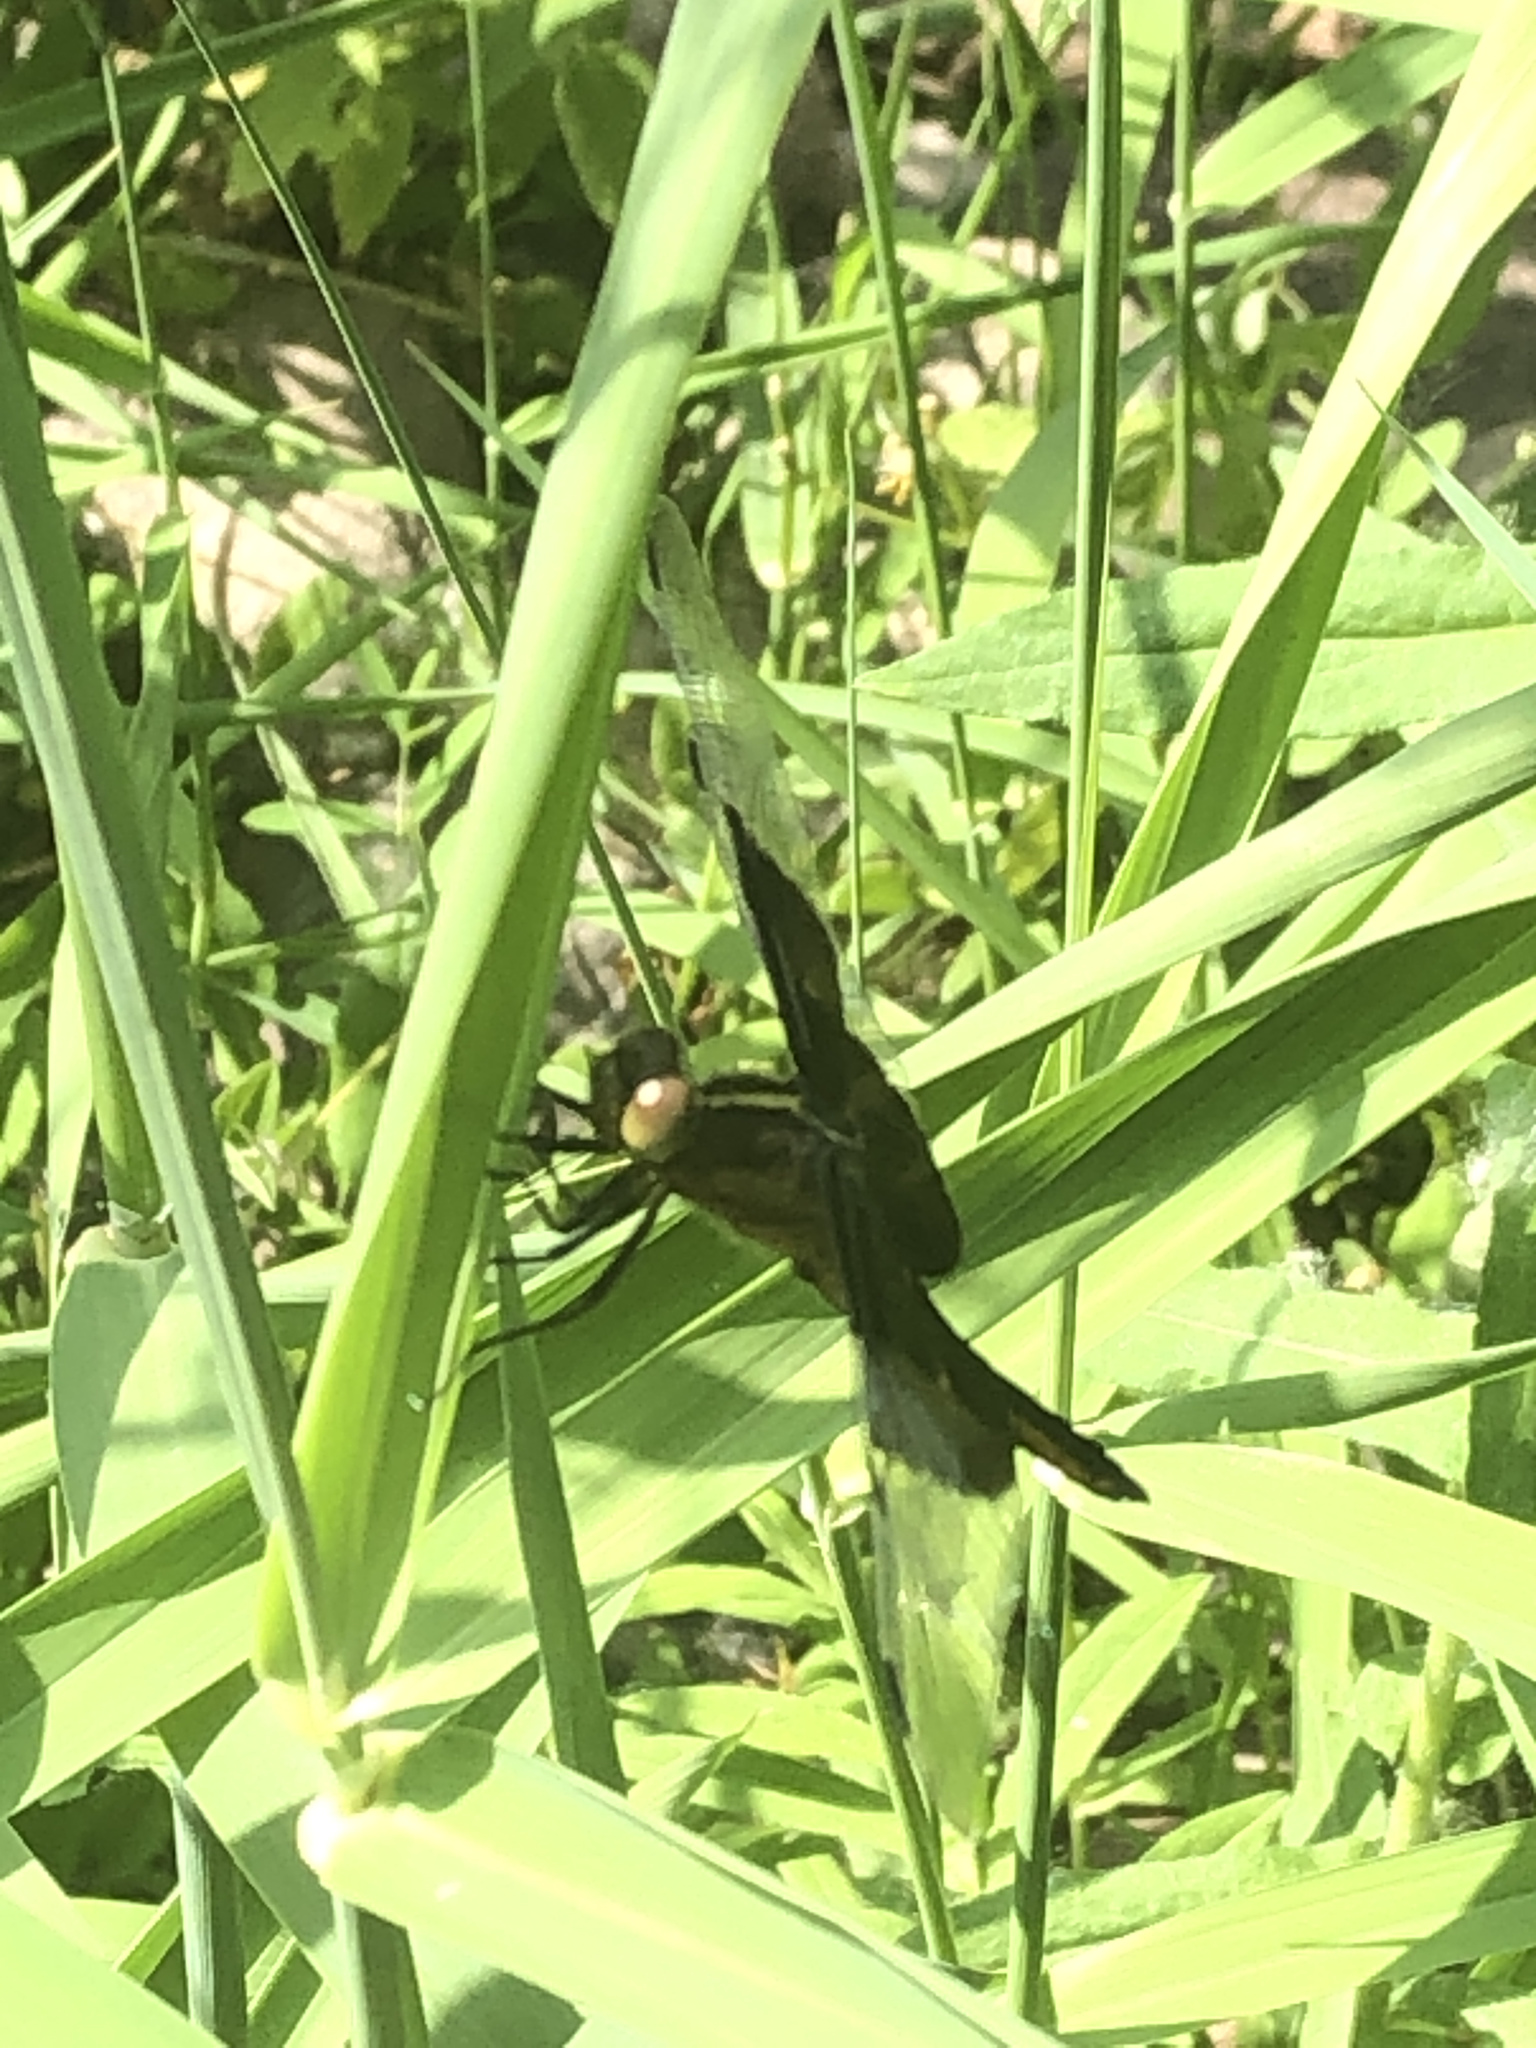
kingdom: Animalia
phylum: Arthropoda
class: Insecta
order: Odonata
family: Libellulidae
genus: Libellula
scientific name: Libellula luctuosa
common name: Widow skimmer
